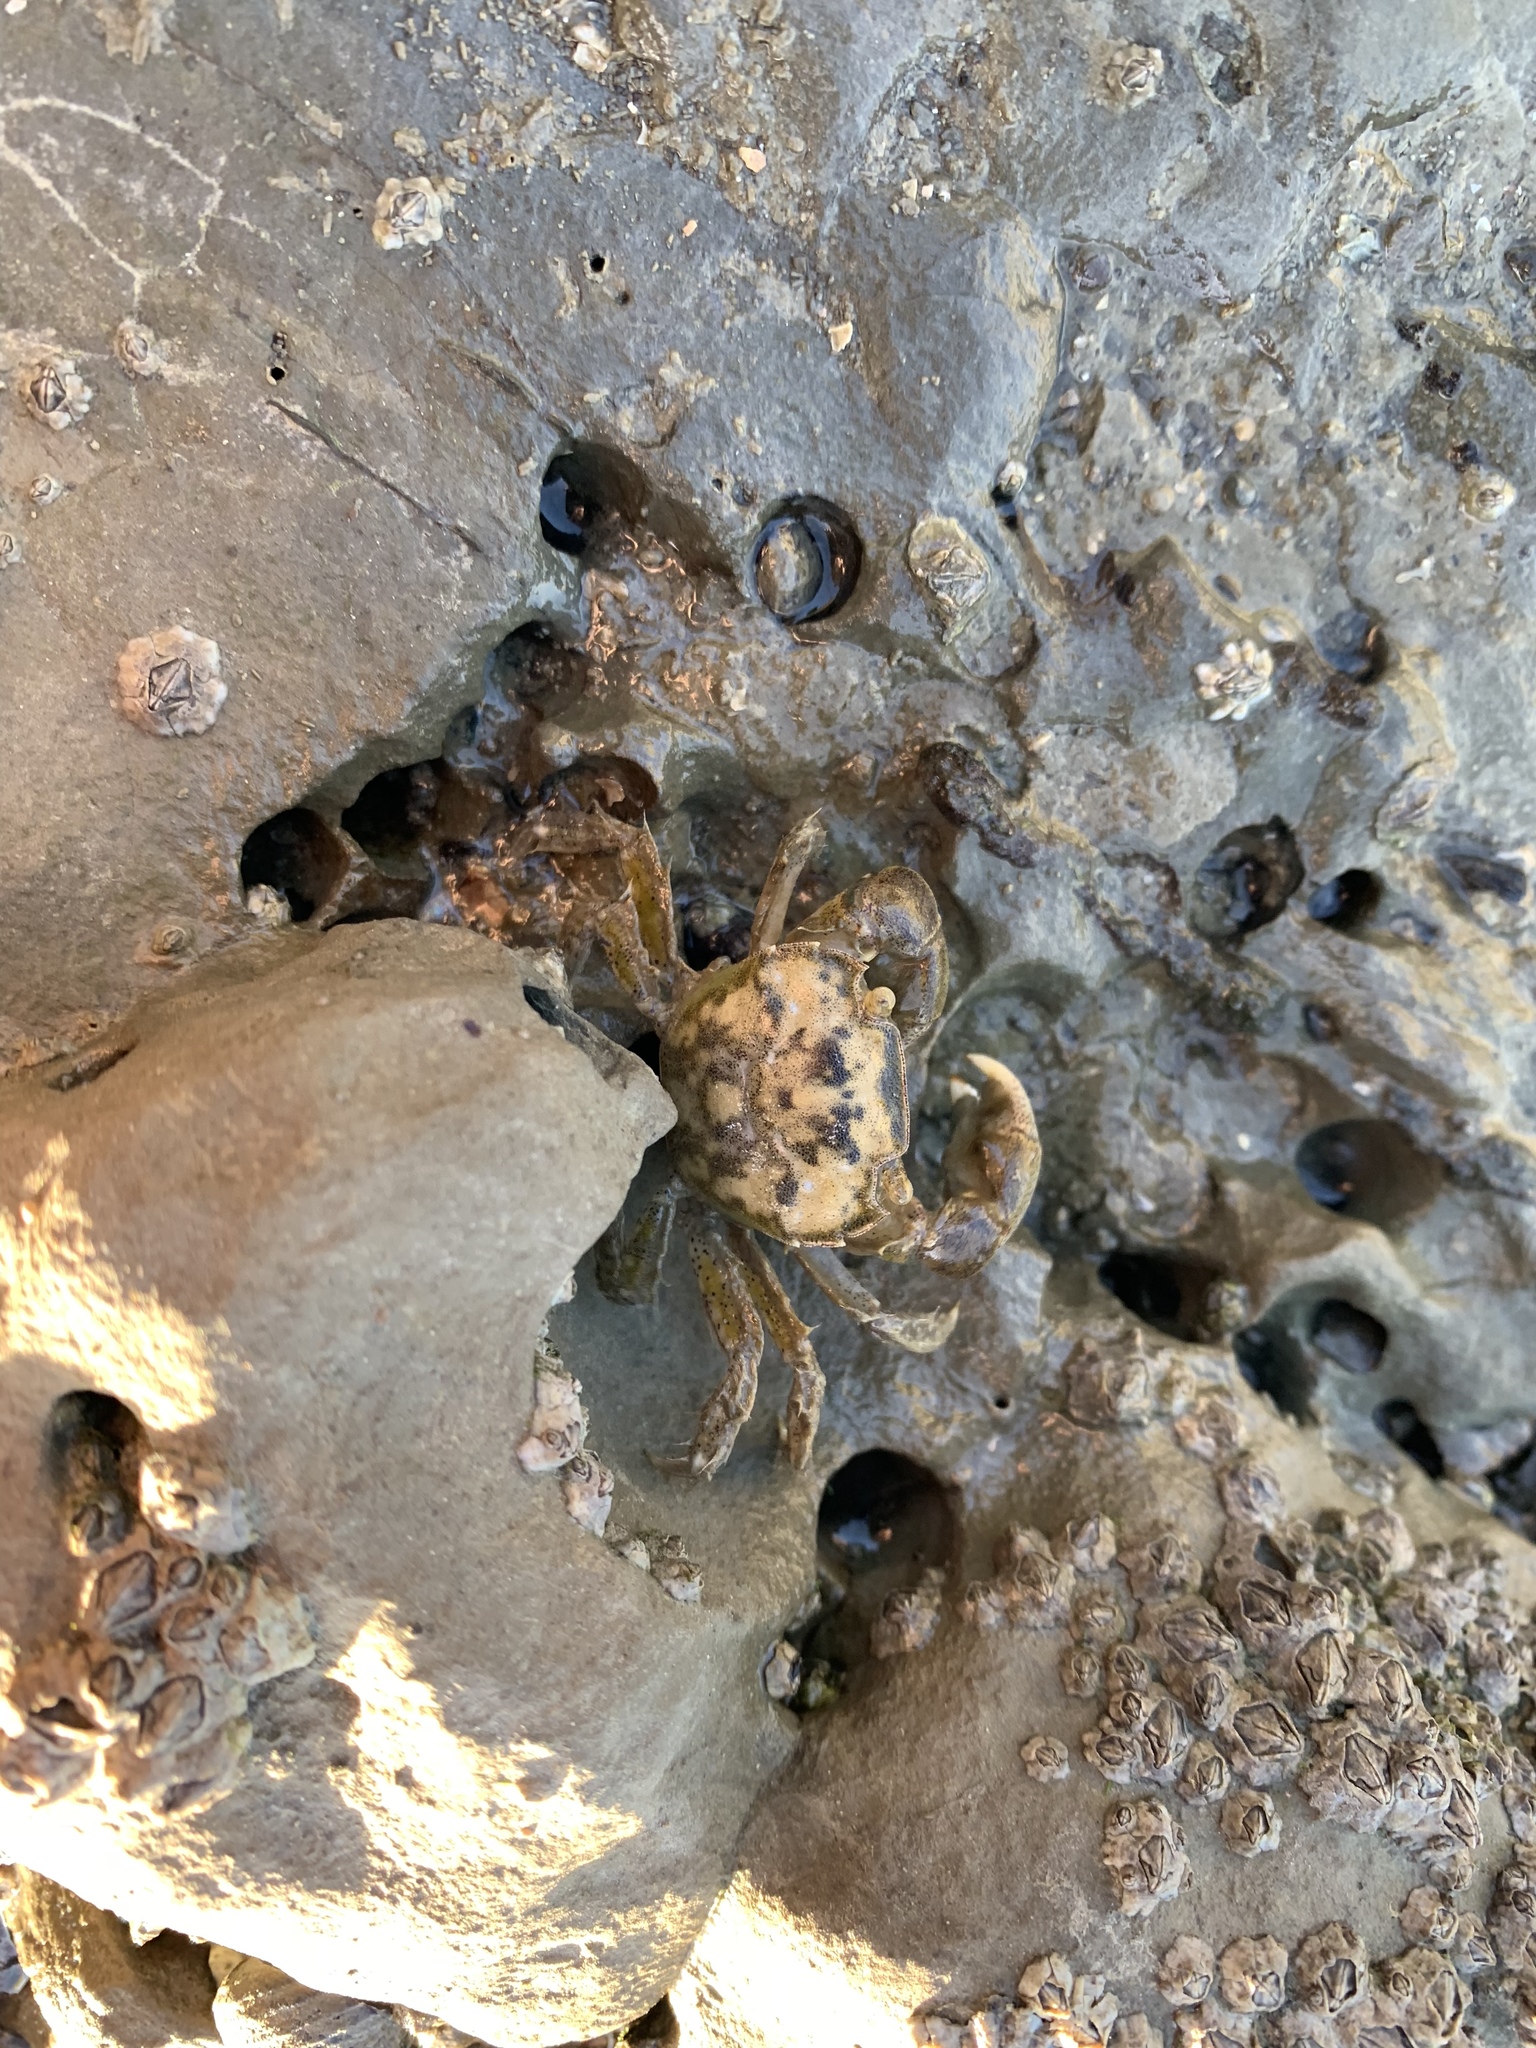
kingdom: Animalia
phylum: Arthropoda
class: Malacostraca
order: Decapoda
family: Varunidae
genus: Hemigrapsus
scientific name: Hemigrapsus crenulatus
